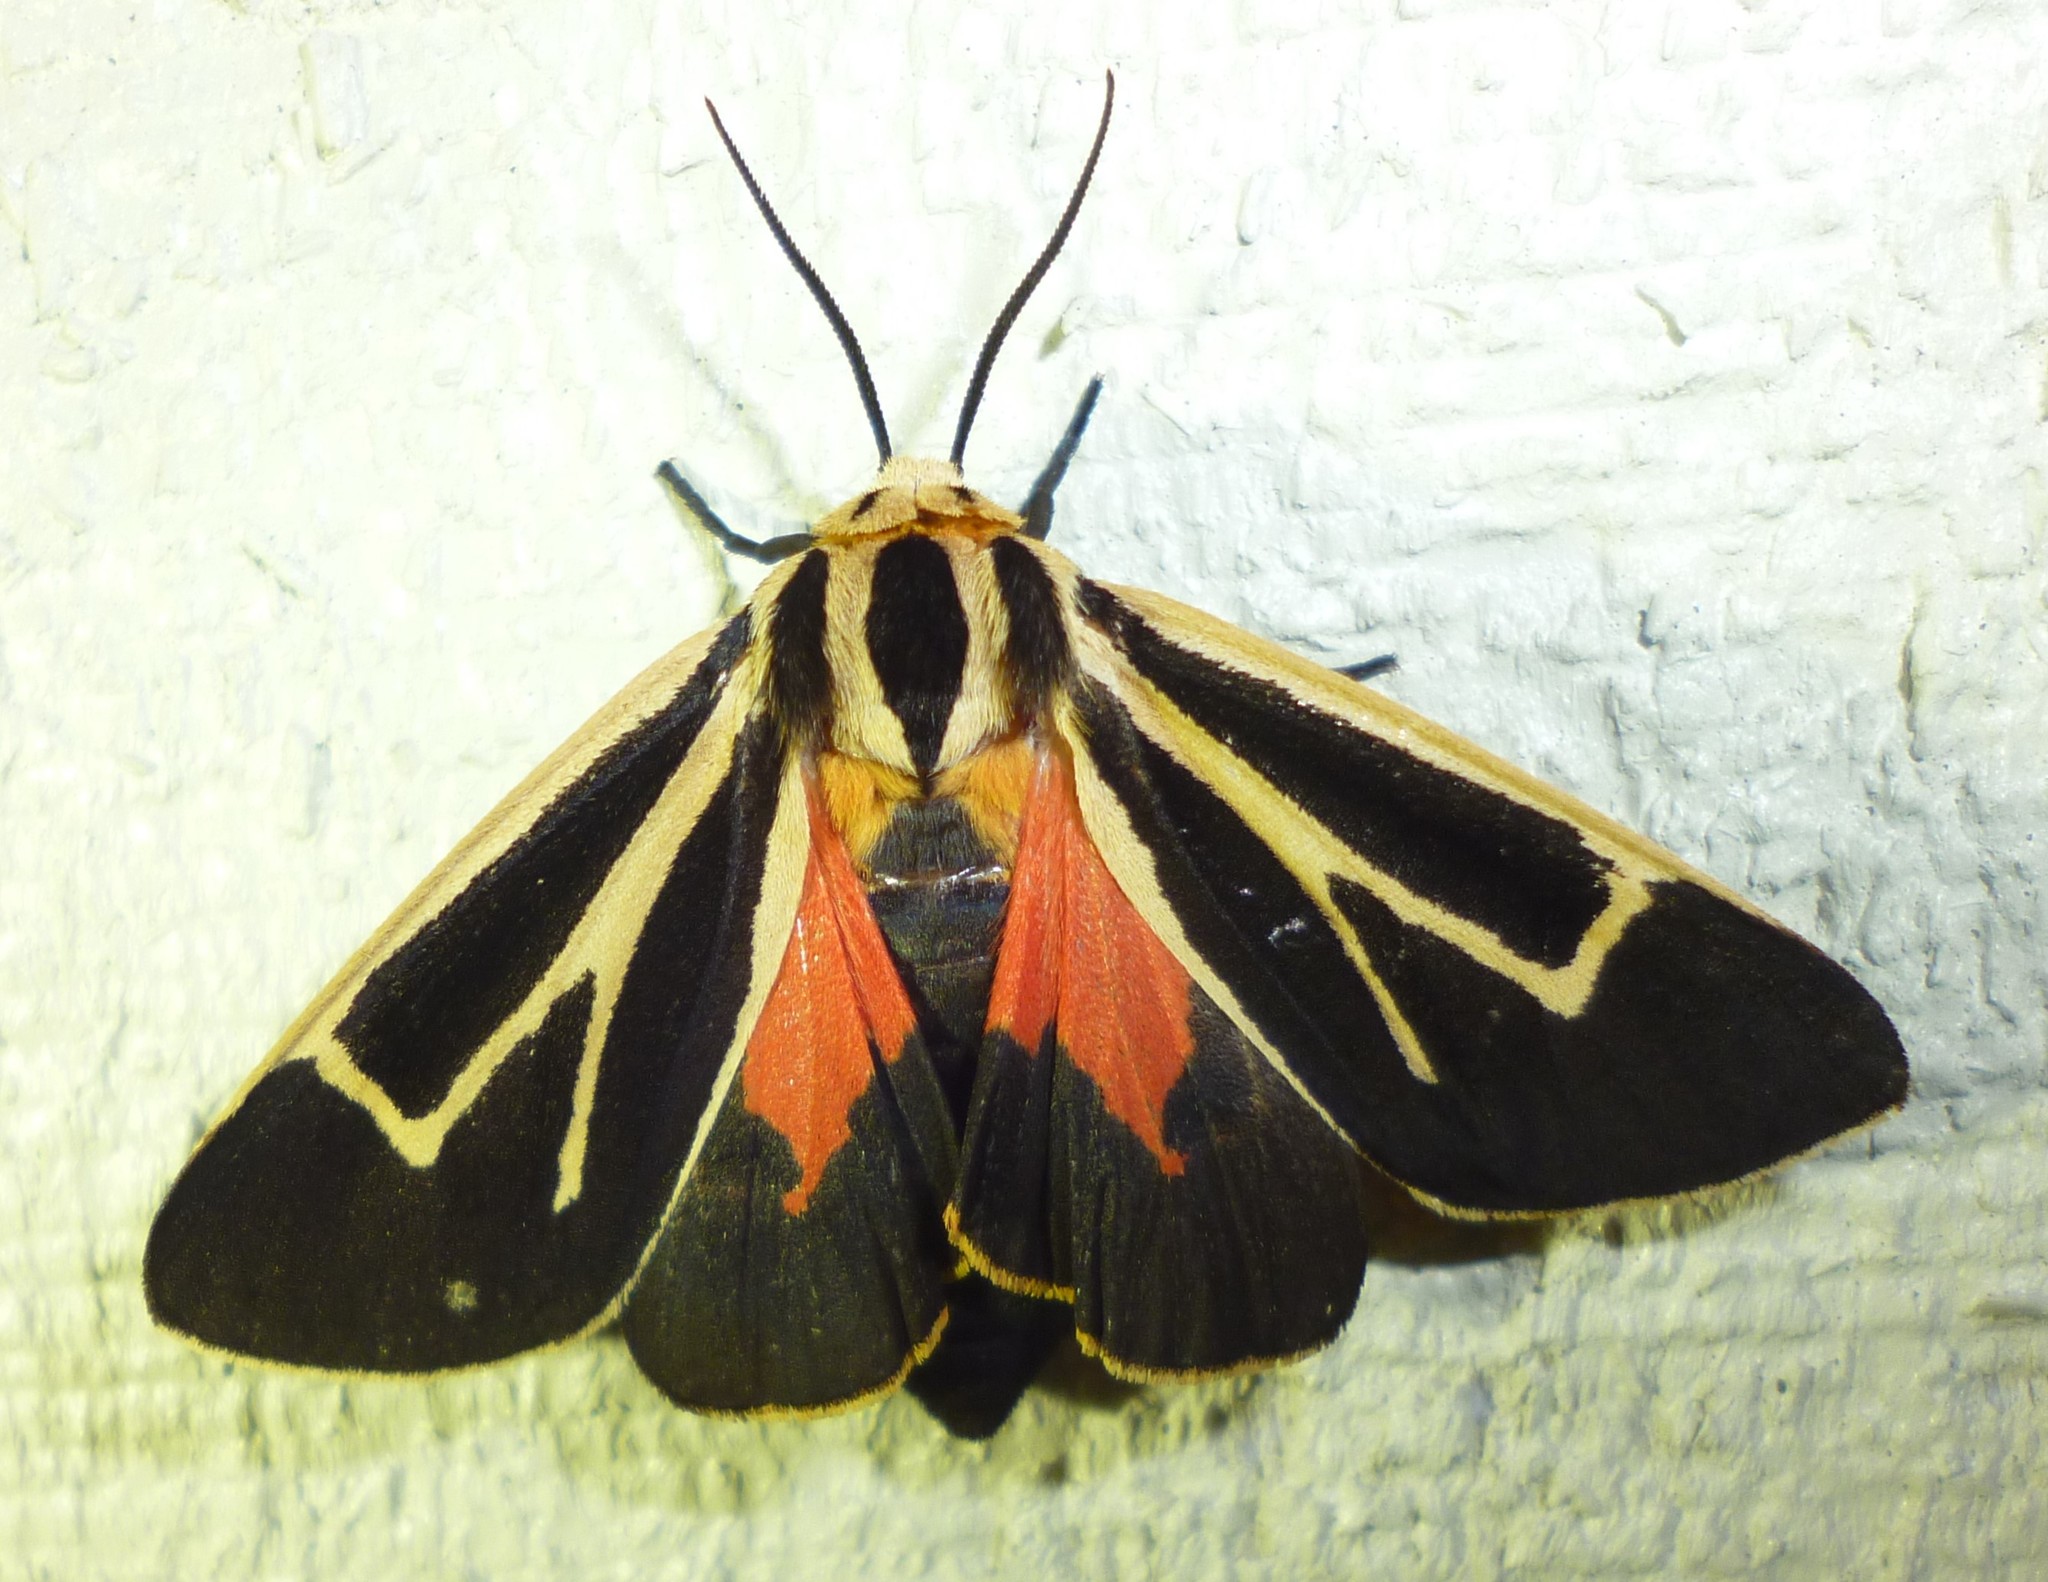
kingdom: Animalia
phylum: Arthropoda
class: Insecta
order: Lepidoptera
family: Erebidae
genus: Apantesis
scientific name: Apantesis nais
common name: Nais tiger moth
